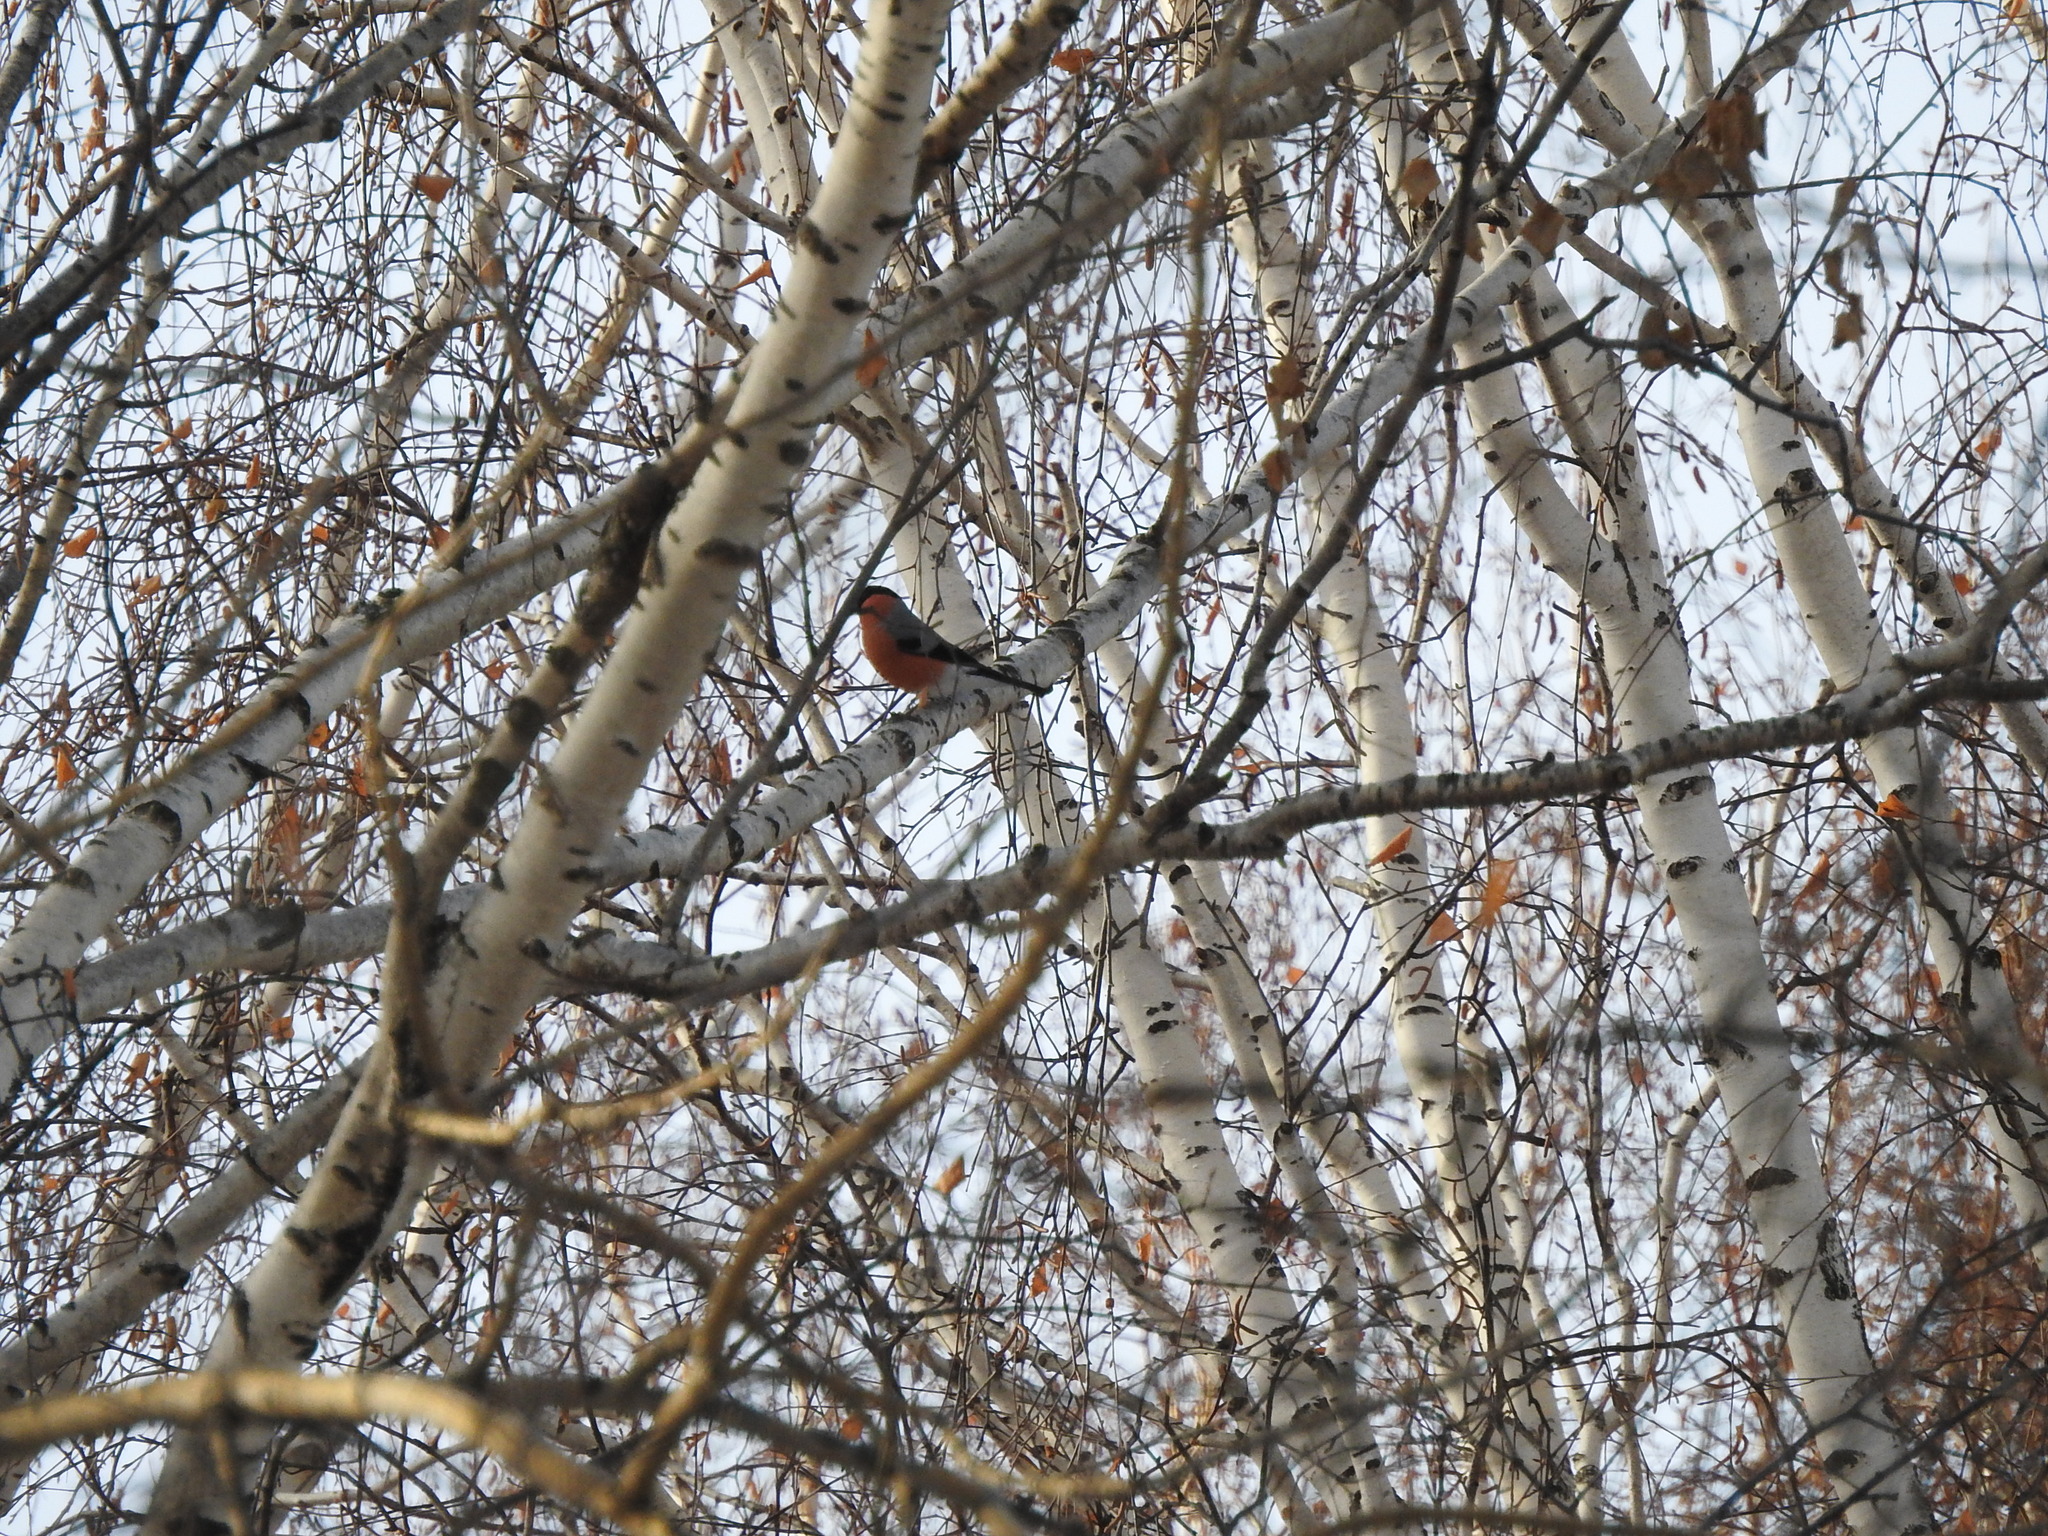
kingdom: Animalia
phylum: Chordata
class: Aves
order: Passeriformes
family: Fringillidae
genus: Pyrrhula
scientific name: Pyrrhula pyrrhula
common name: Eurasian bullfinch
